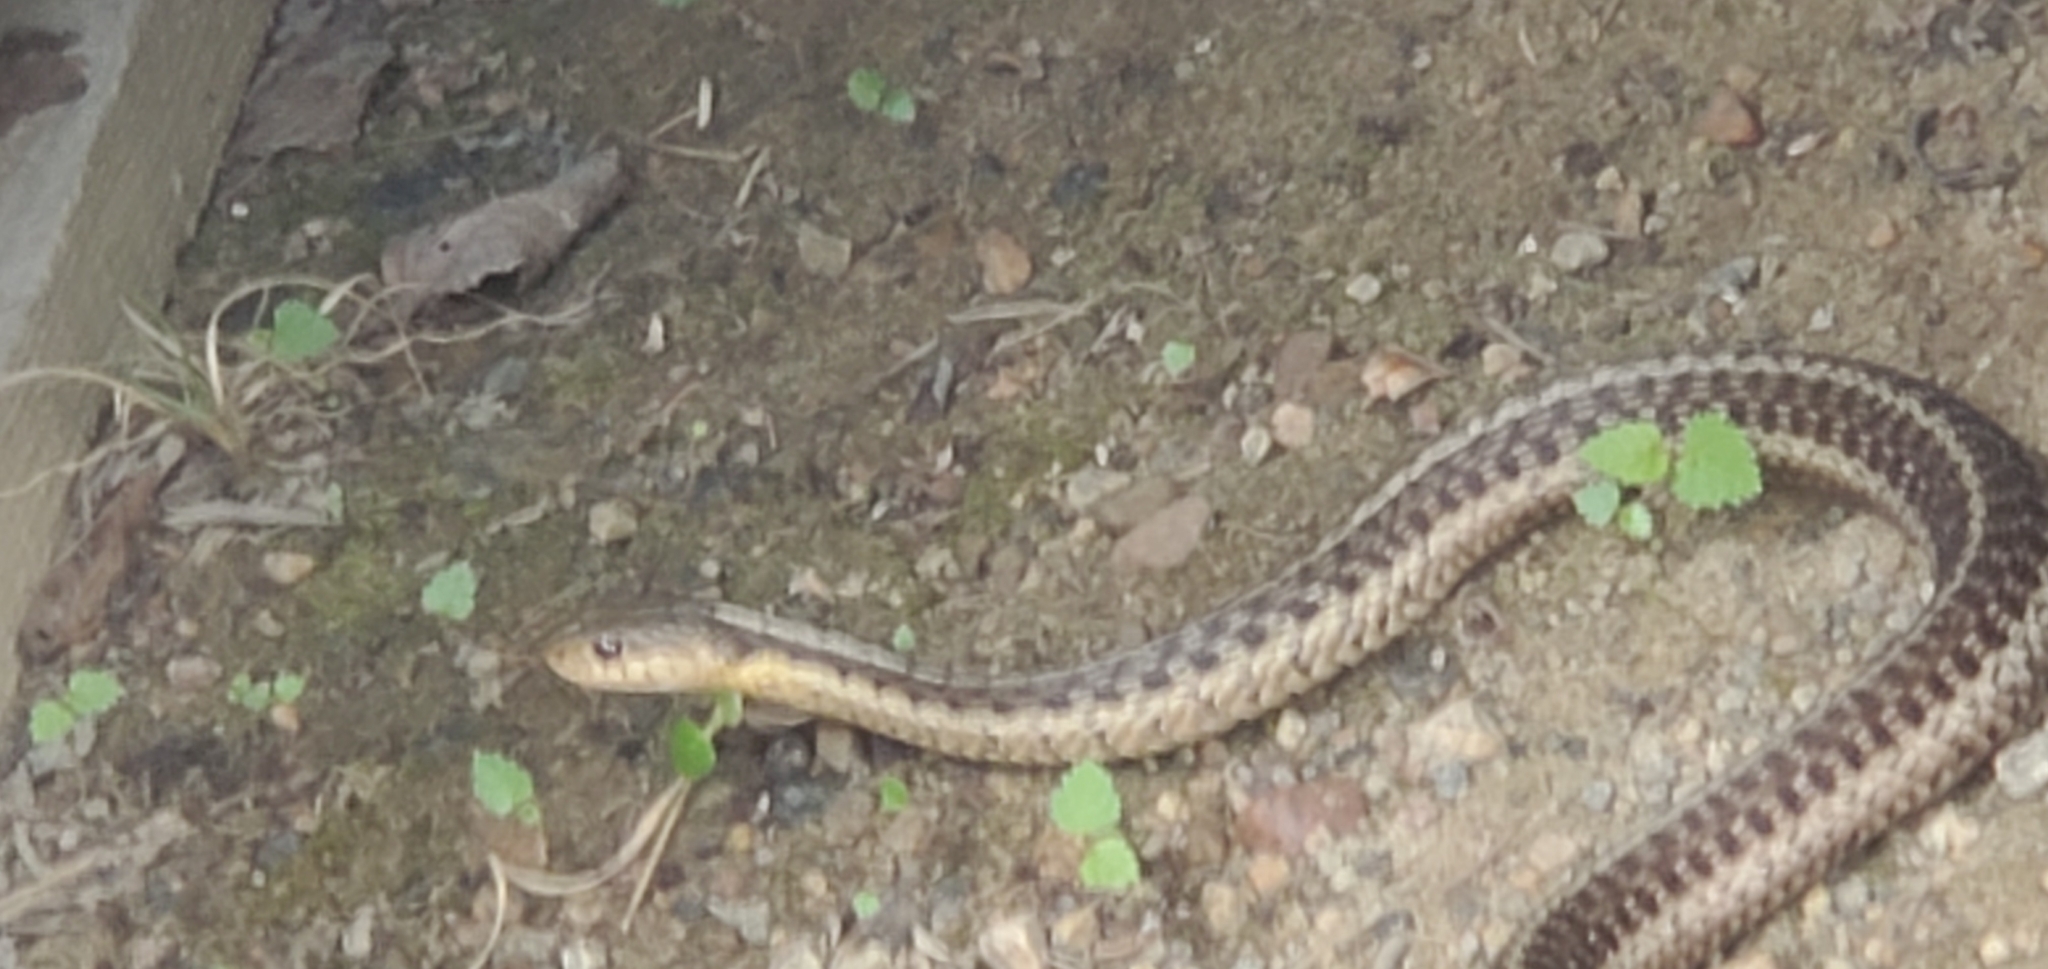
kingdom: Animalia
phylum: Chordata
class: Squamata
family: Colubridae
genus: Thamnophis
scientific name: Thamnophis sirtalis
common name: Common garter snake
